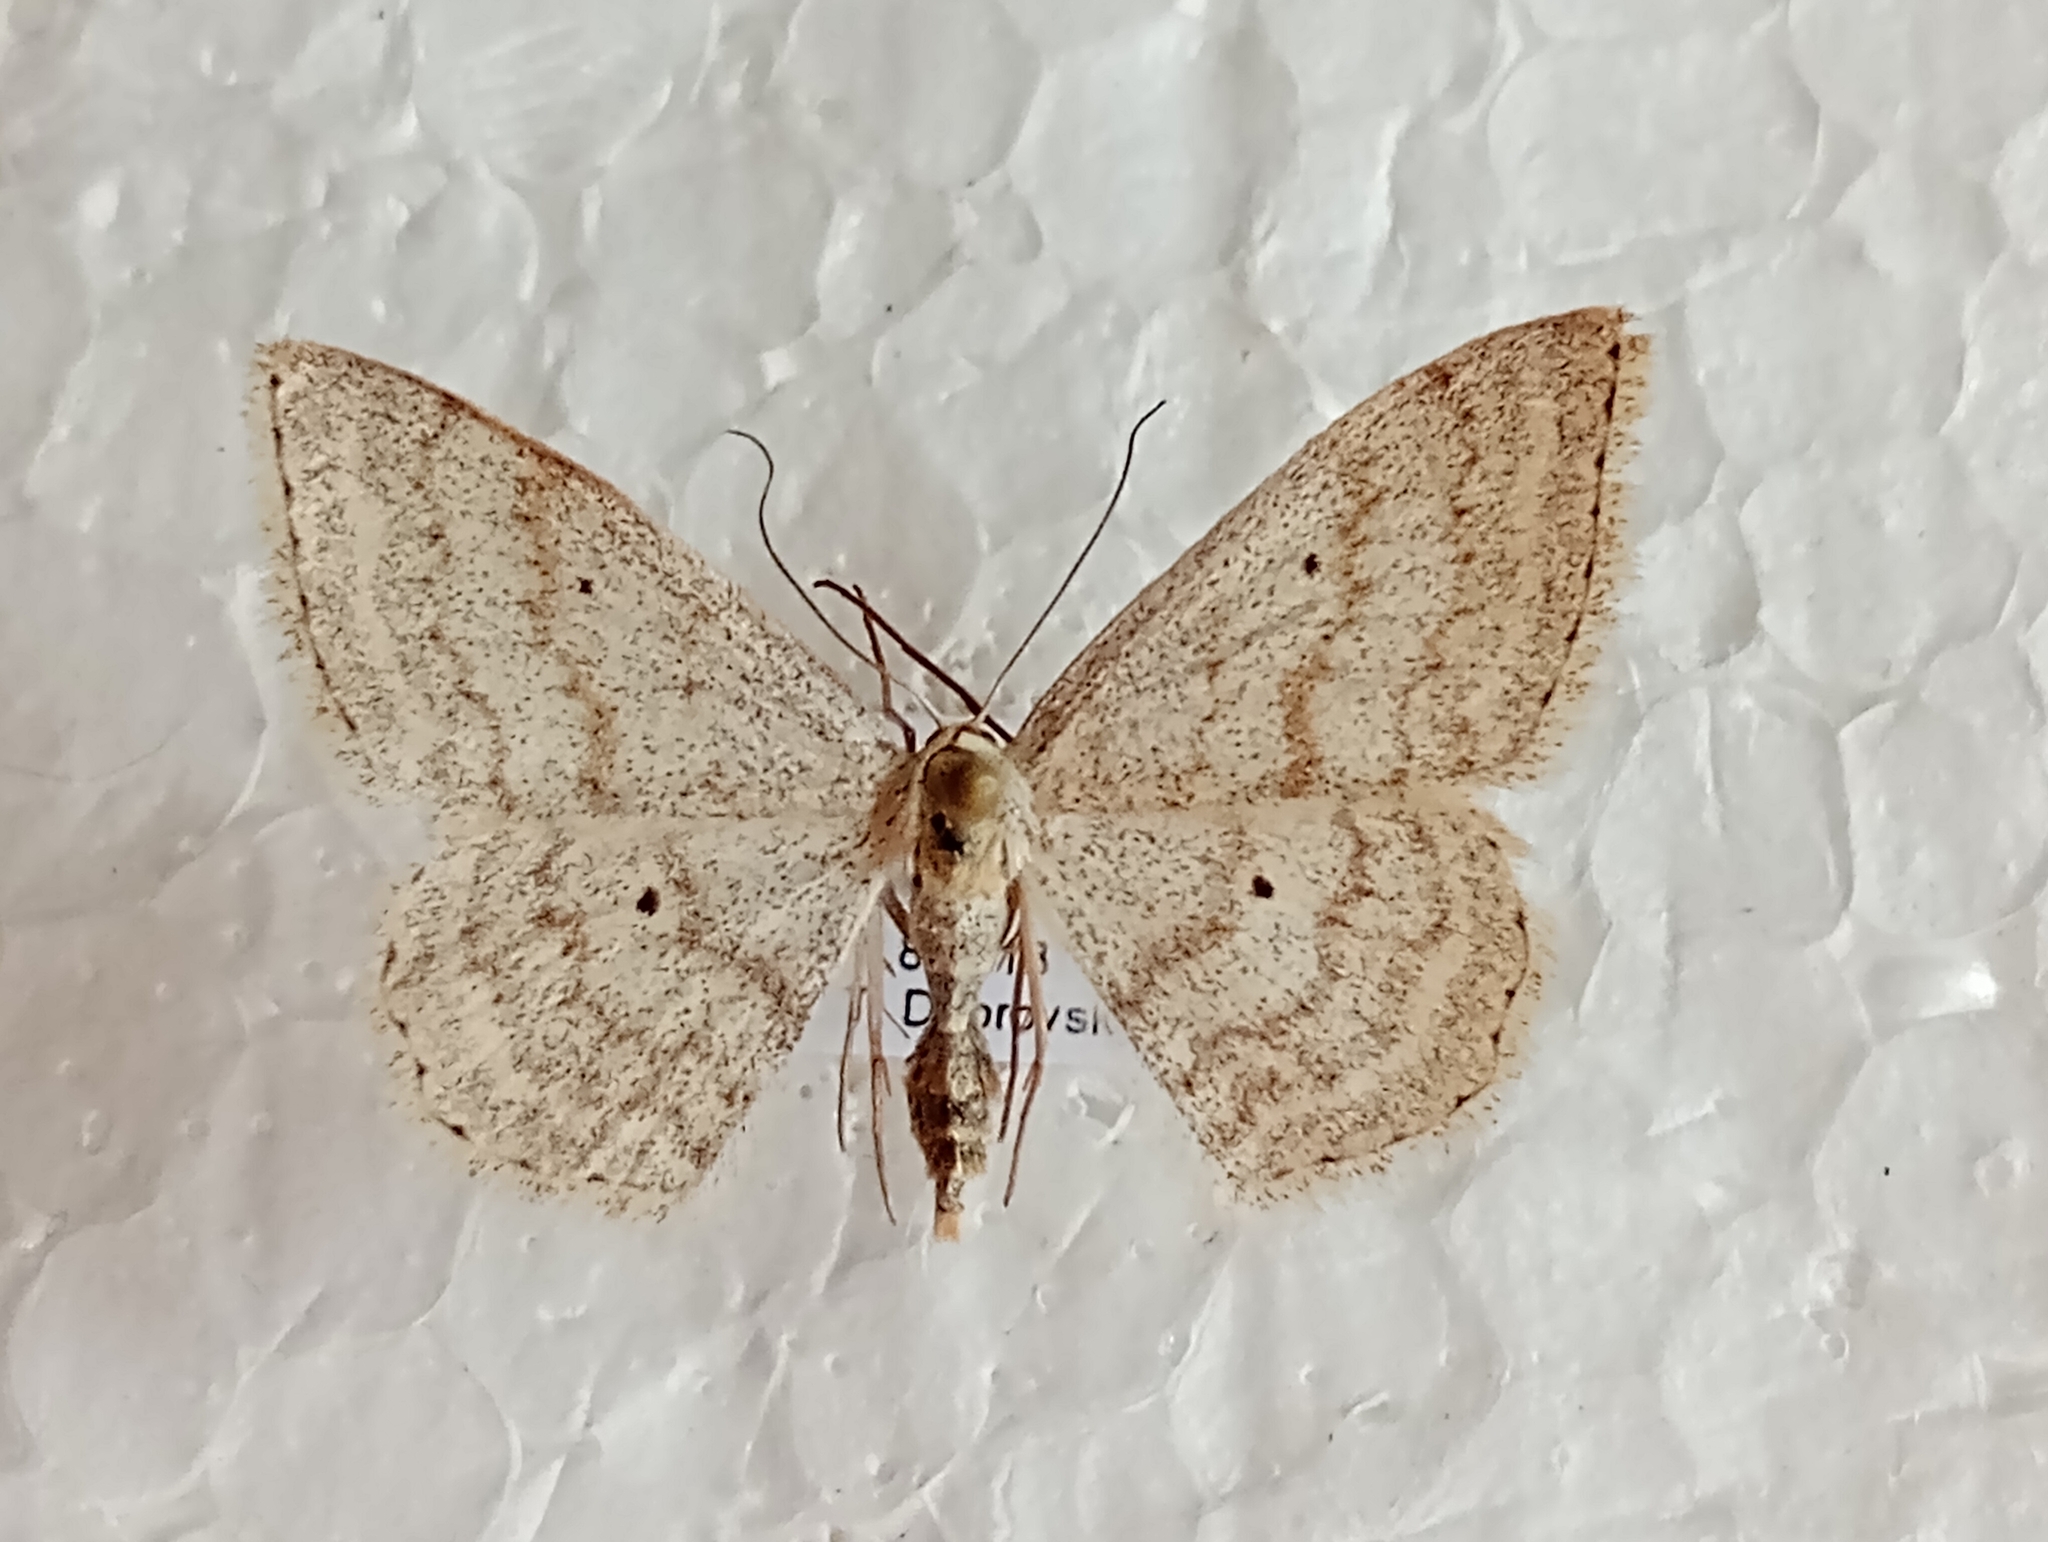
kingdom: Animalia
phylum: Arthropoda
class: Insecta
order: Lepidoptera
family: Geometridae
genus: Scopula
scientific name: Scopula incanata
